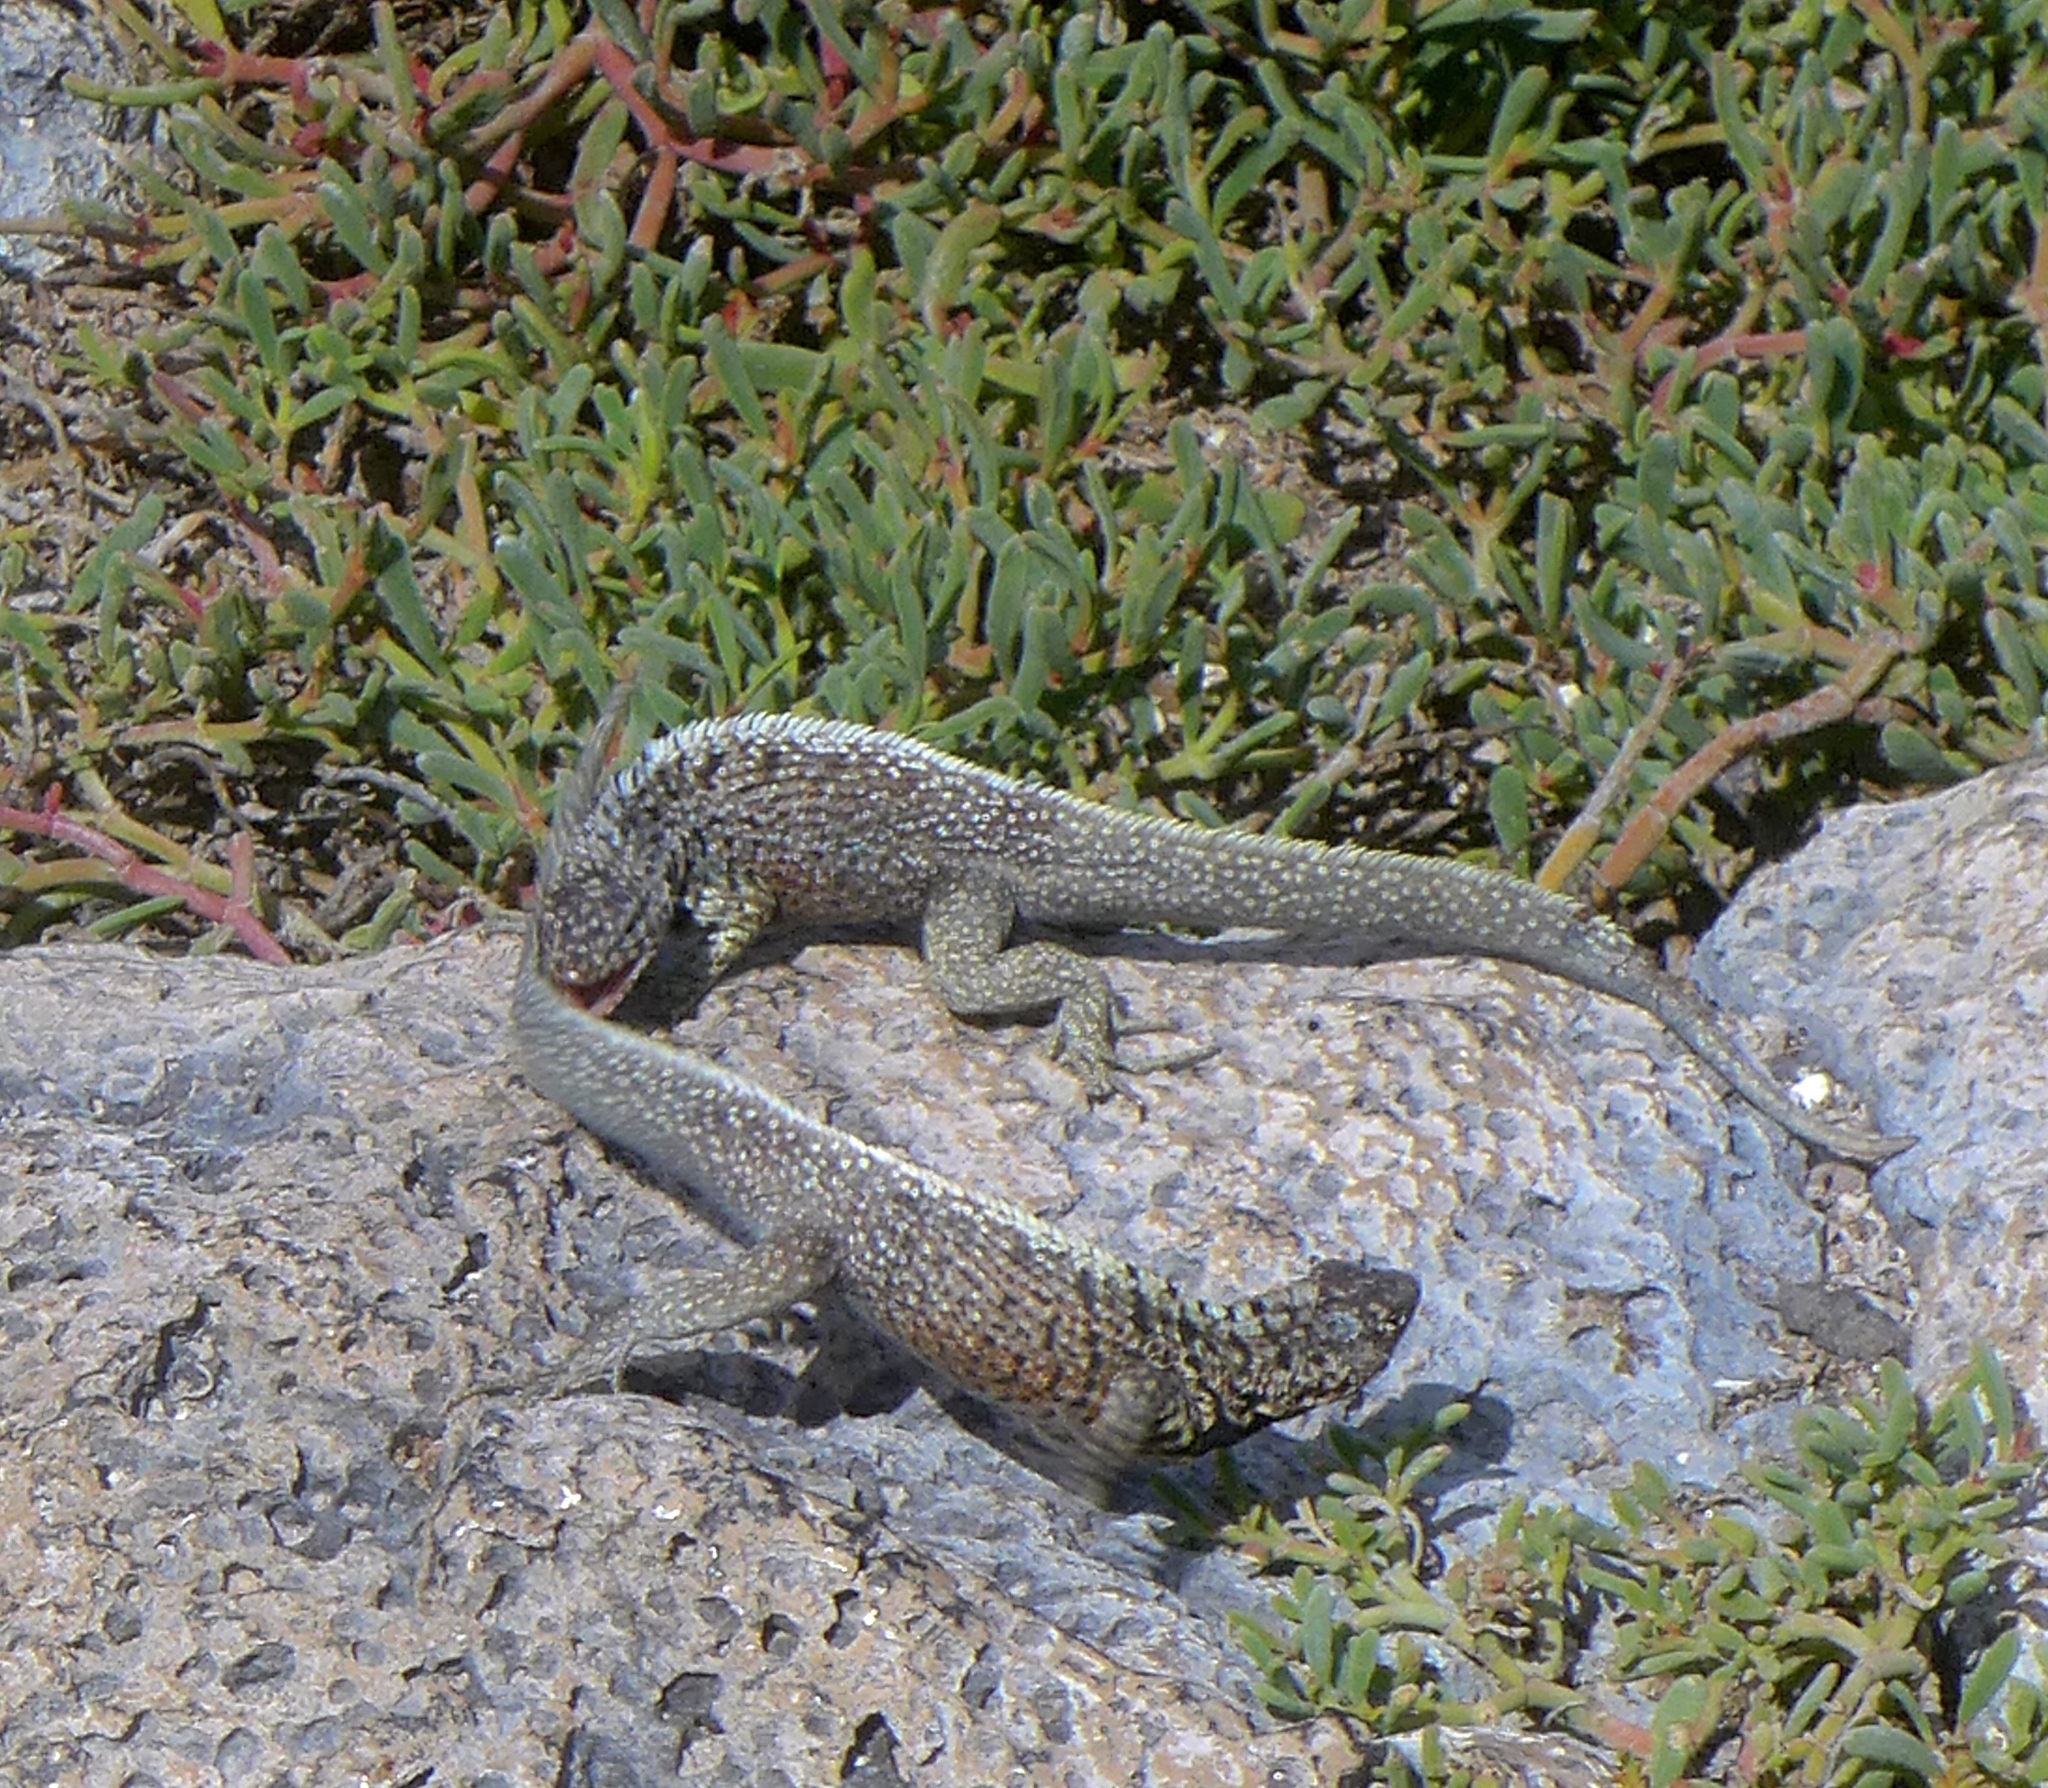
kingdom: Animalia
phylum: Chordata
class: Squamata
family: Tropiduridae
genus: Microlophus
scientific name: Microlophus indefatigabilis
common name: Galapagos lava lizard
